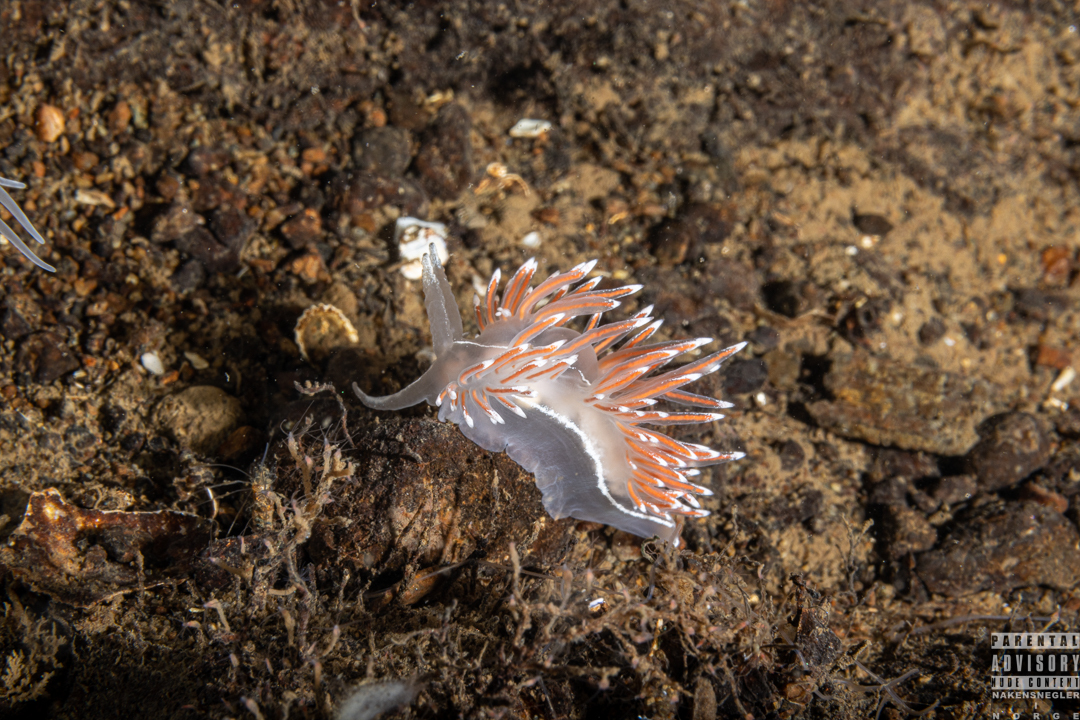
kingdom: Animalia
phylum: Mollusca
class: Gastropoda
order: Nudibranchia
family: Coryphellidae
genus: Coryphella
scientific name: Coryphella lineata
